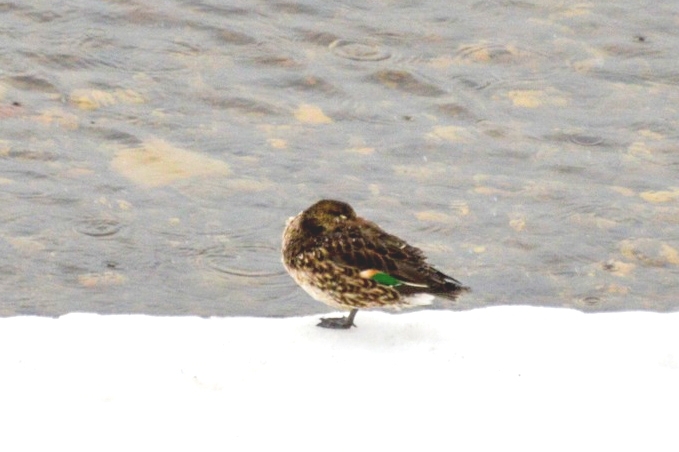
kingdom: Animalia
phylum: Chordata
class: Aves
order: Anseriformes
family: Anatidae
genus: Anas
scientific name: Anas crecca
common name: Eurasian teal
